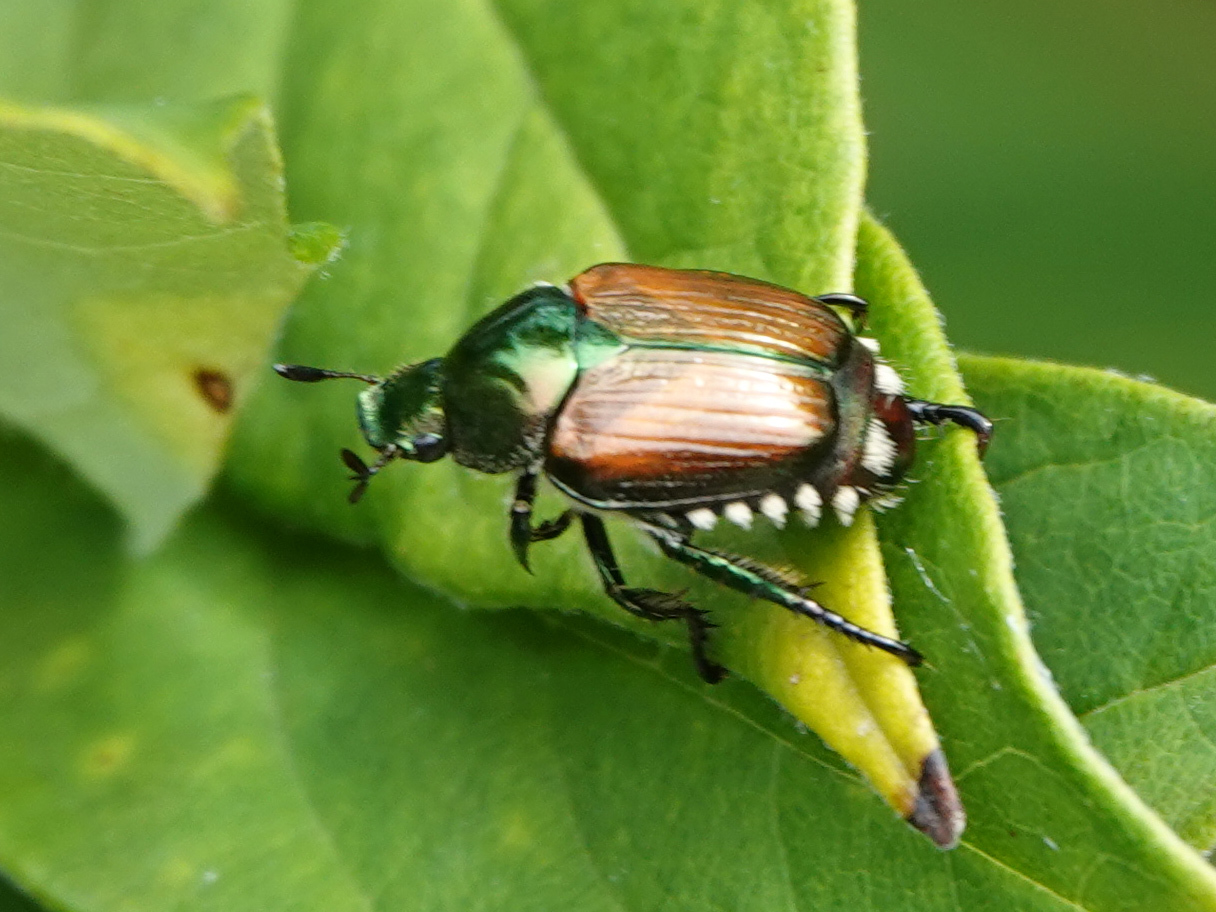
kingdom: Animalia
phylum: Arthropoda
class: Insecta
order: Coleoptera
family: Scarabaeidae
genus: Popillia
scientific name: Popillia japonica
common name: Japanese beetle
